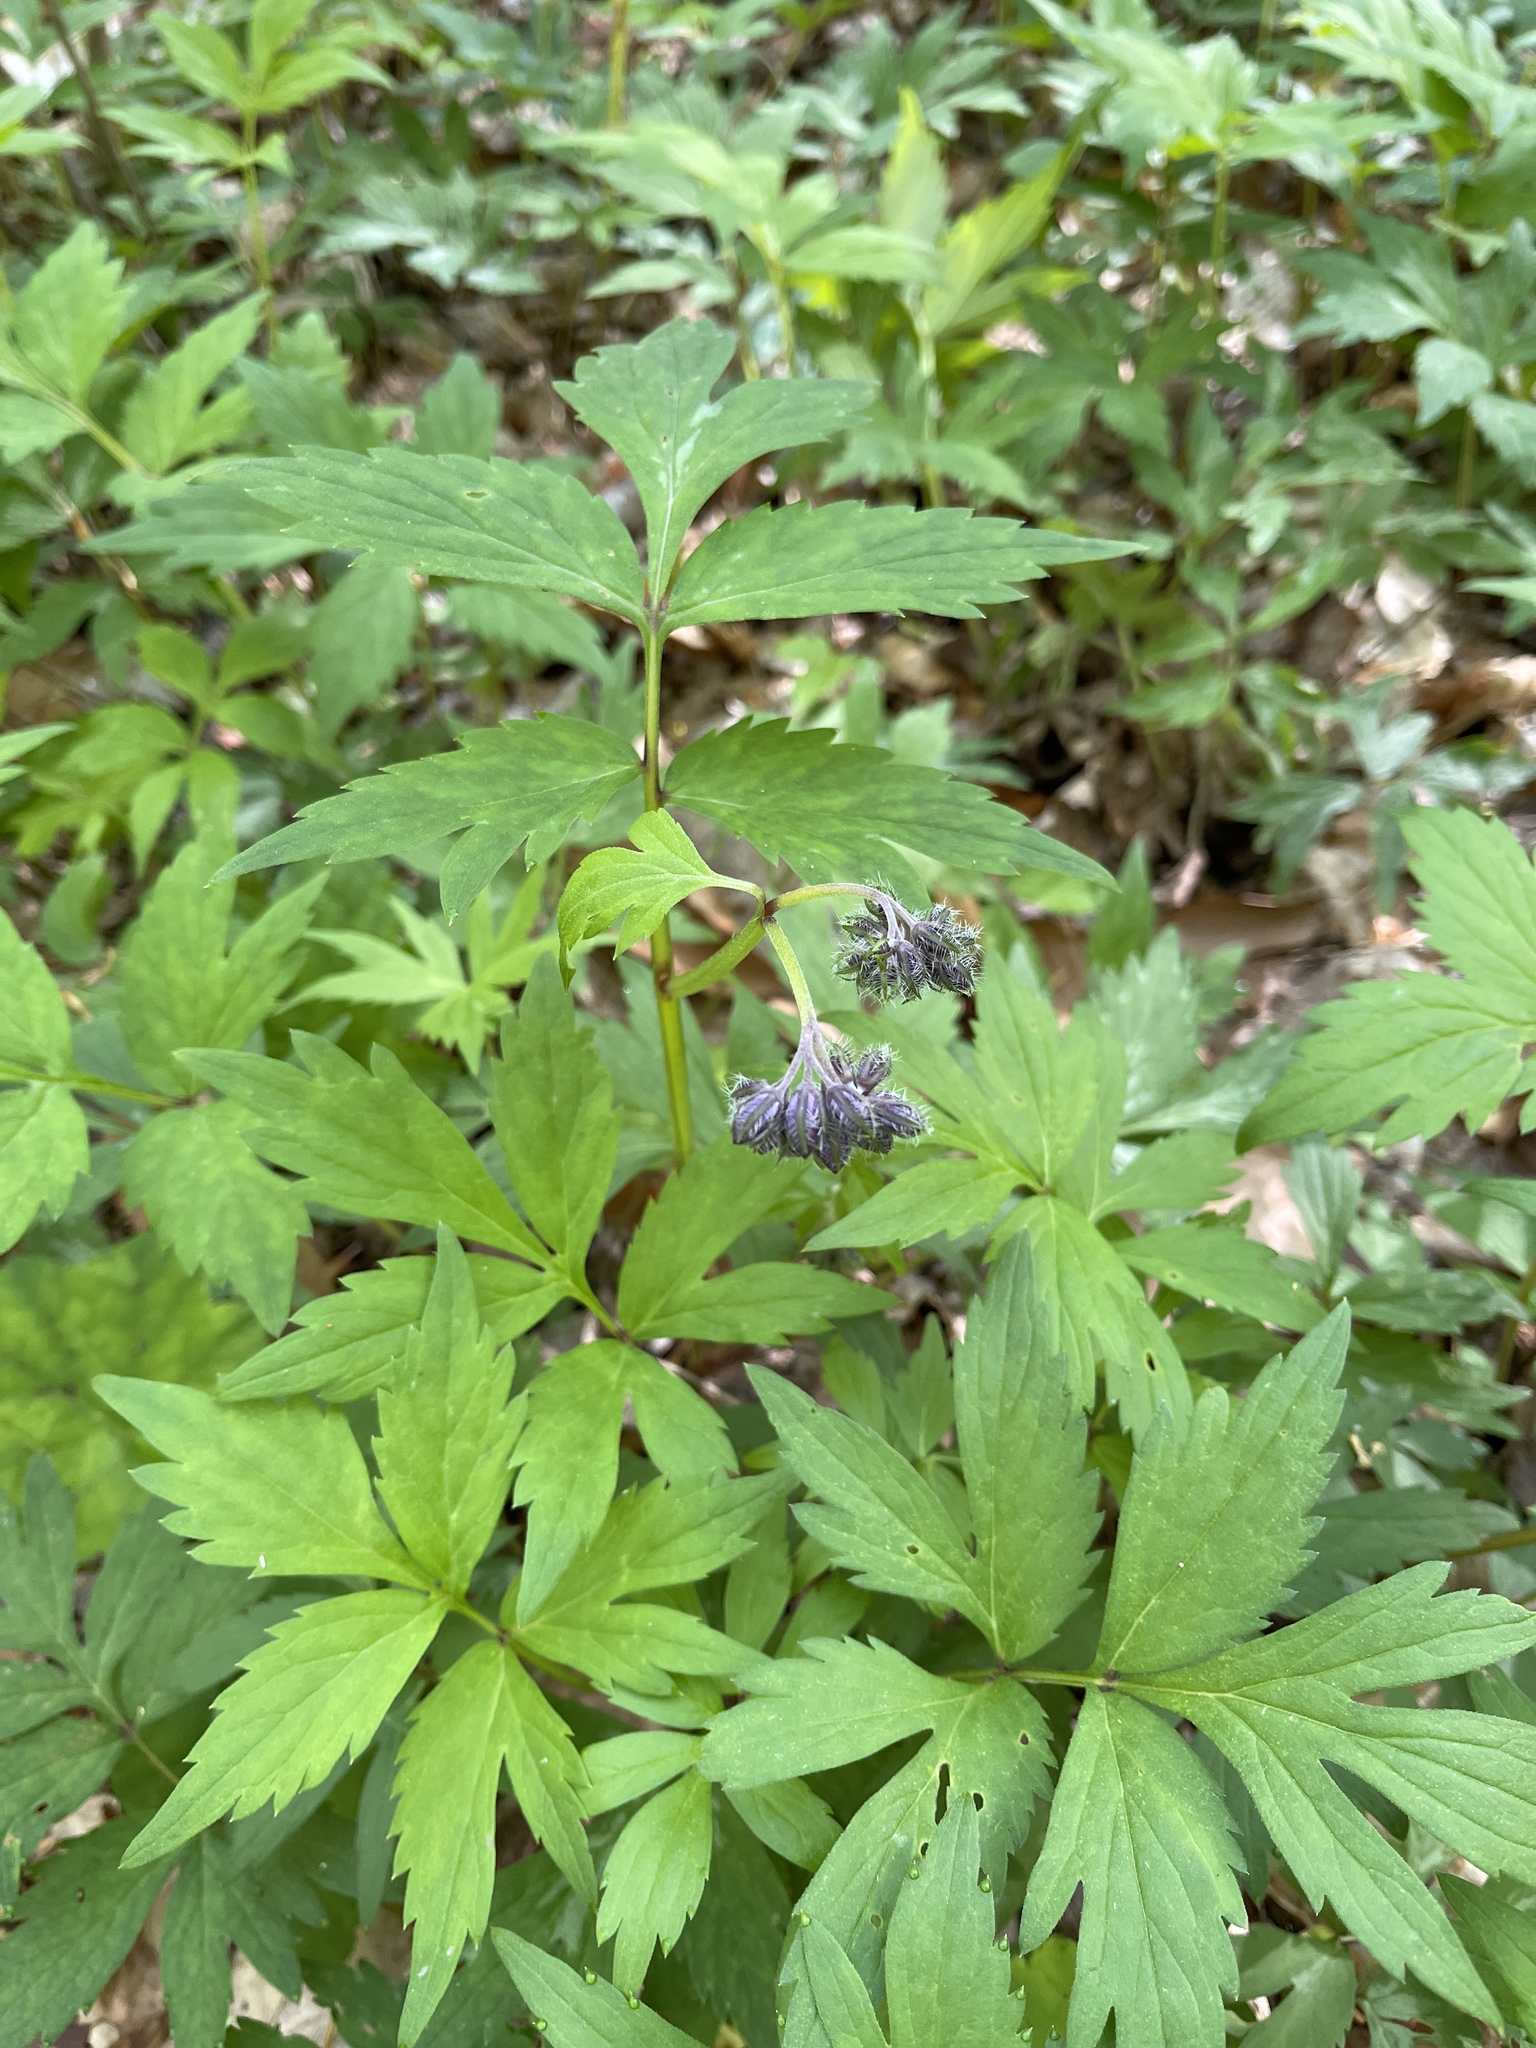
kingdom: Plantae
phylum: Tracheophyta
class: Magnoliopsida
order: Boraginales
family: Hydrophyllaceae
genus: Hydrophyllum
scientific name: Hydrophyllum virginianum
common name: Virginia waterleaf
